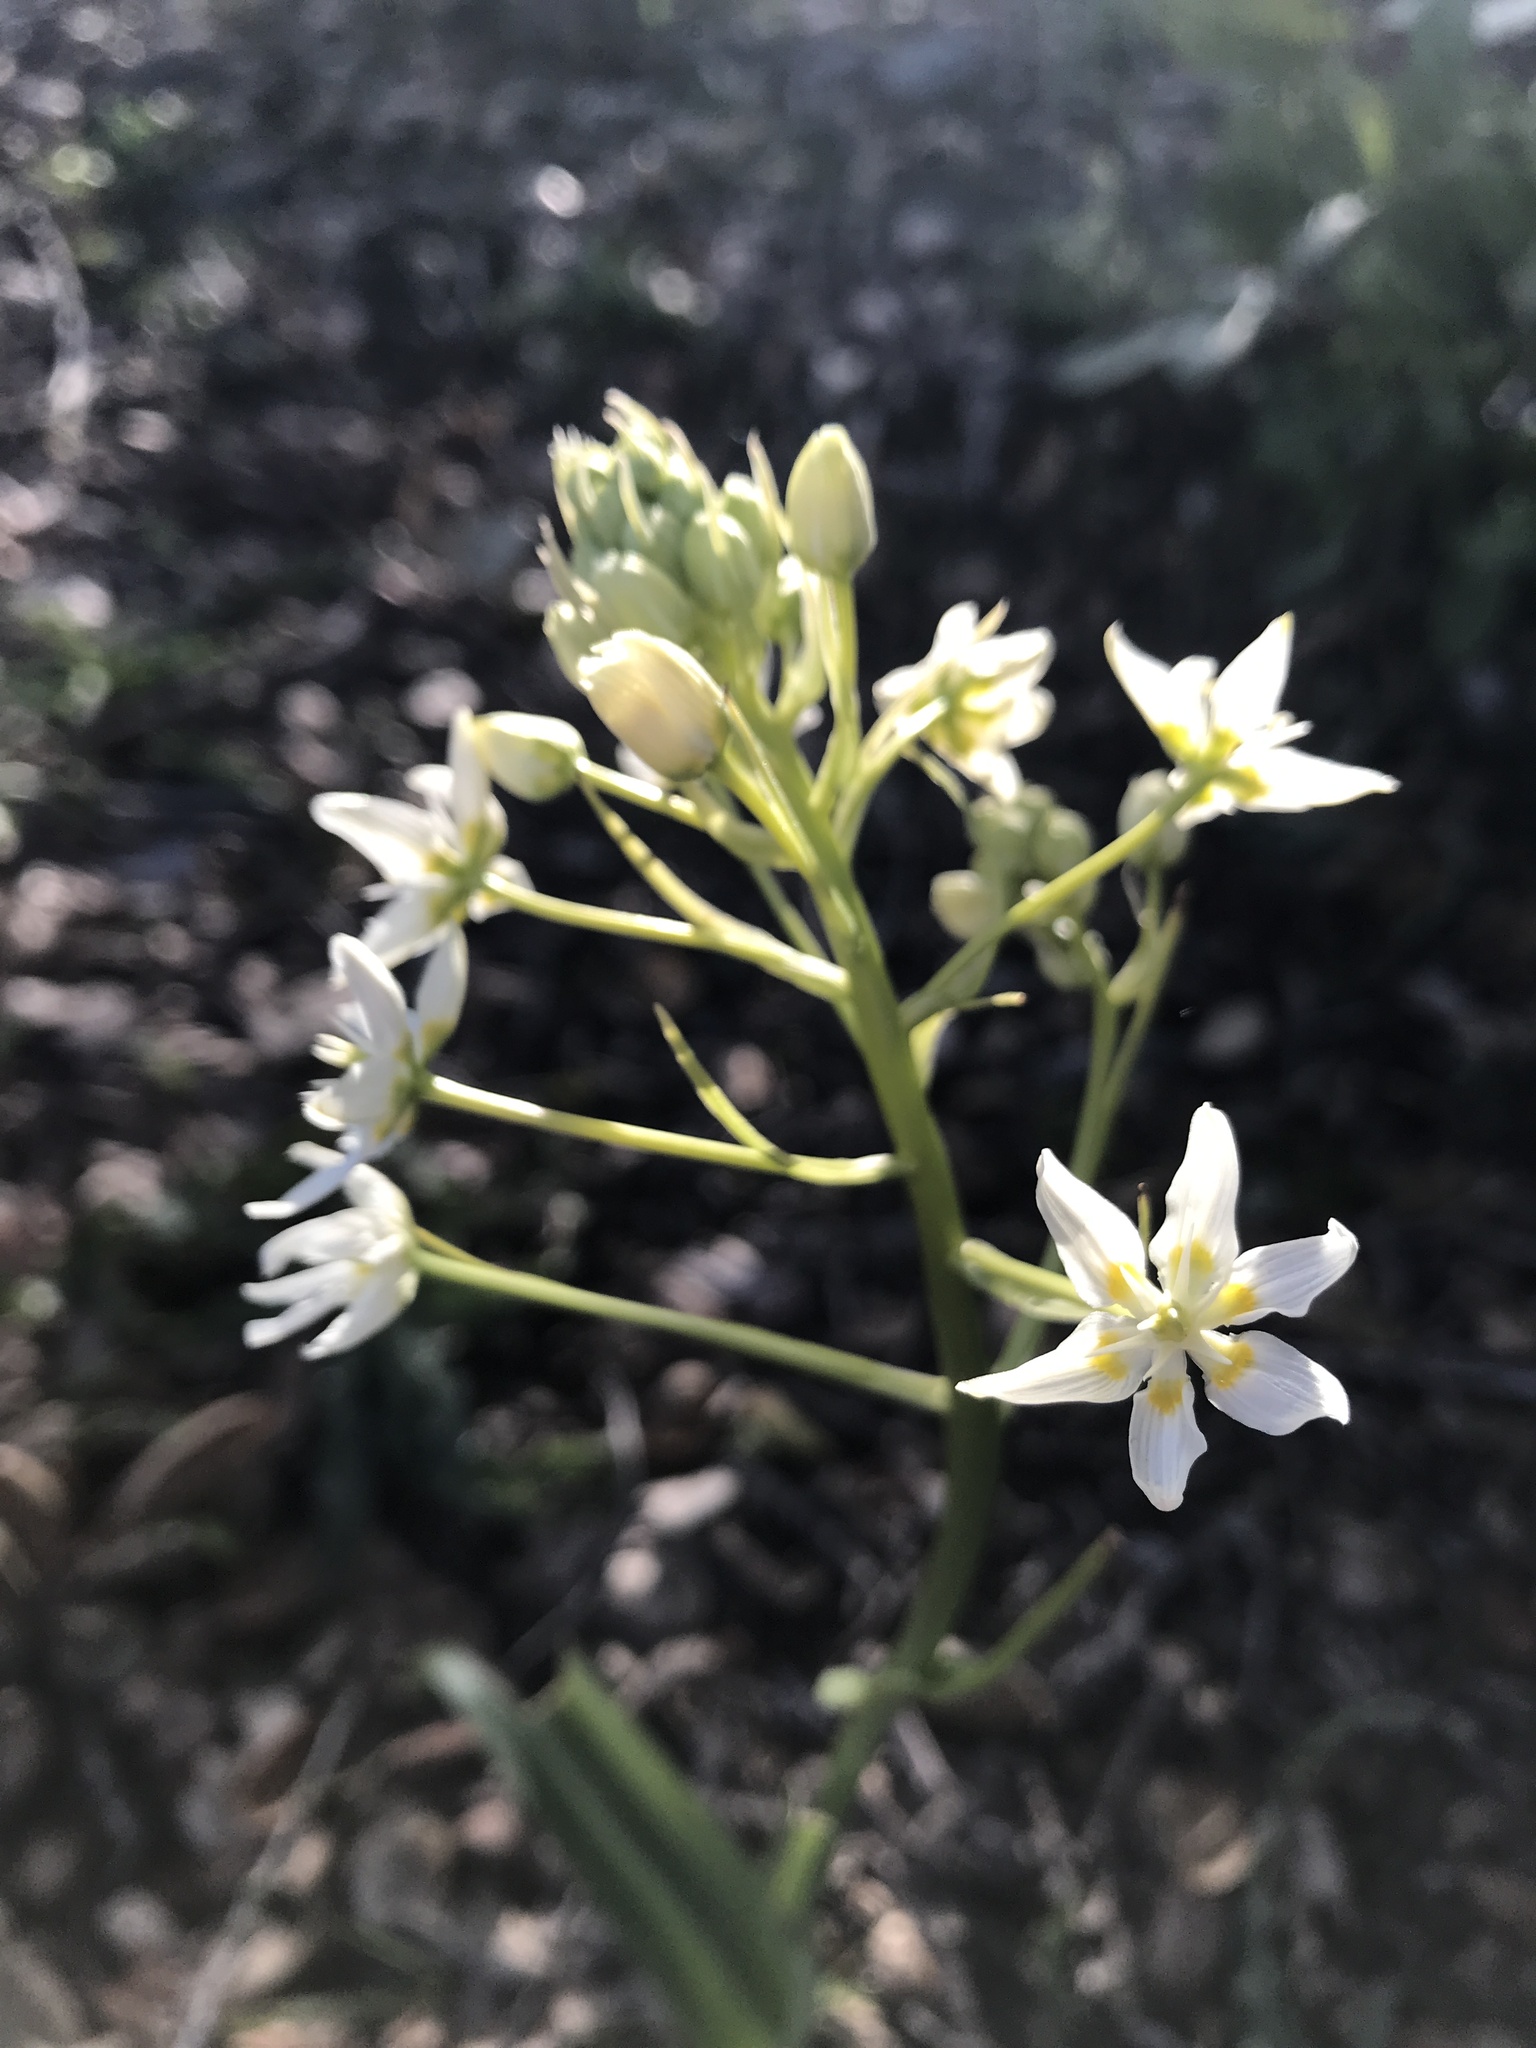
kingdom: Plantae
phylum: Tracheophyta
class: Liliopsida
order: Liliales
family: Melanthiaceae
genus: Toxicoscordion
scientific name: Toxicoscordion fremontii
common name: Fremont's death camas
